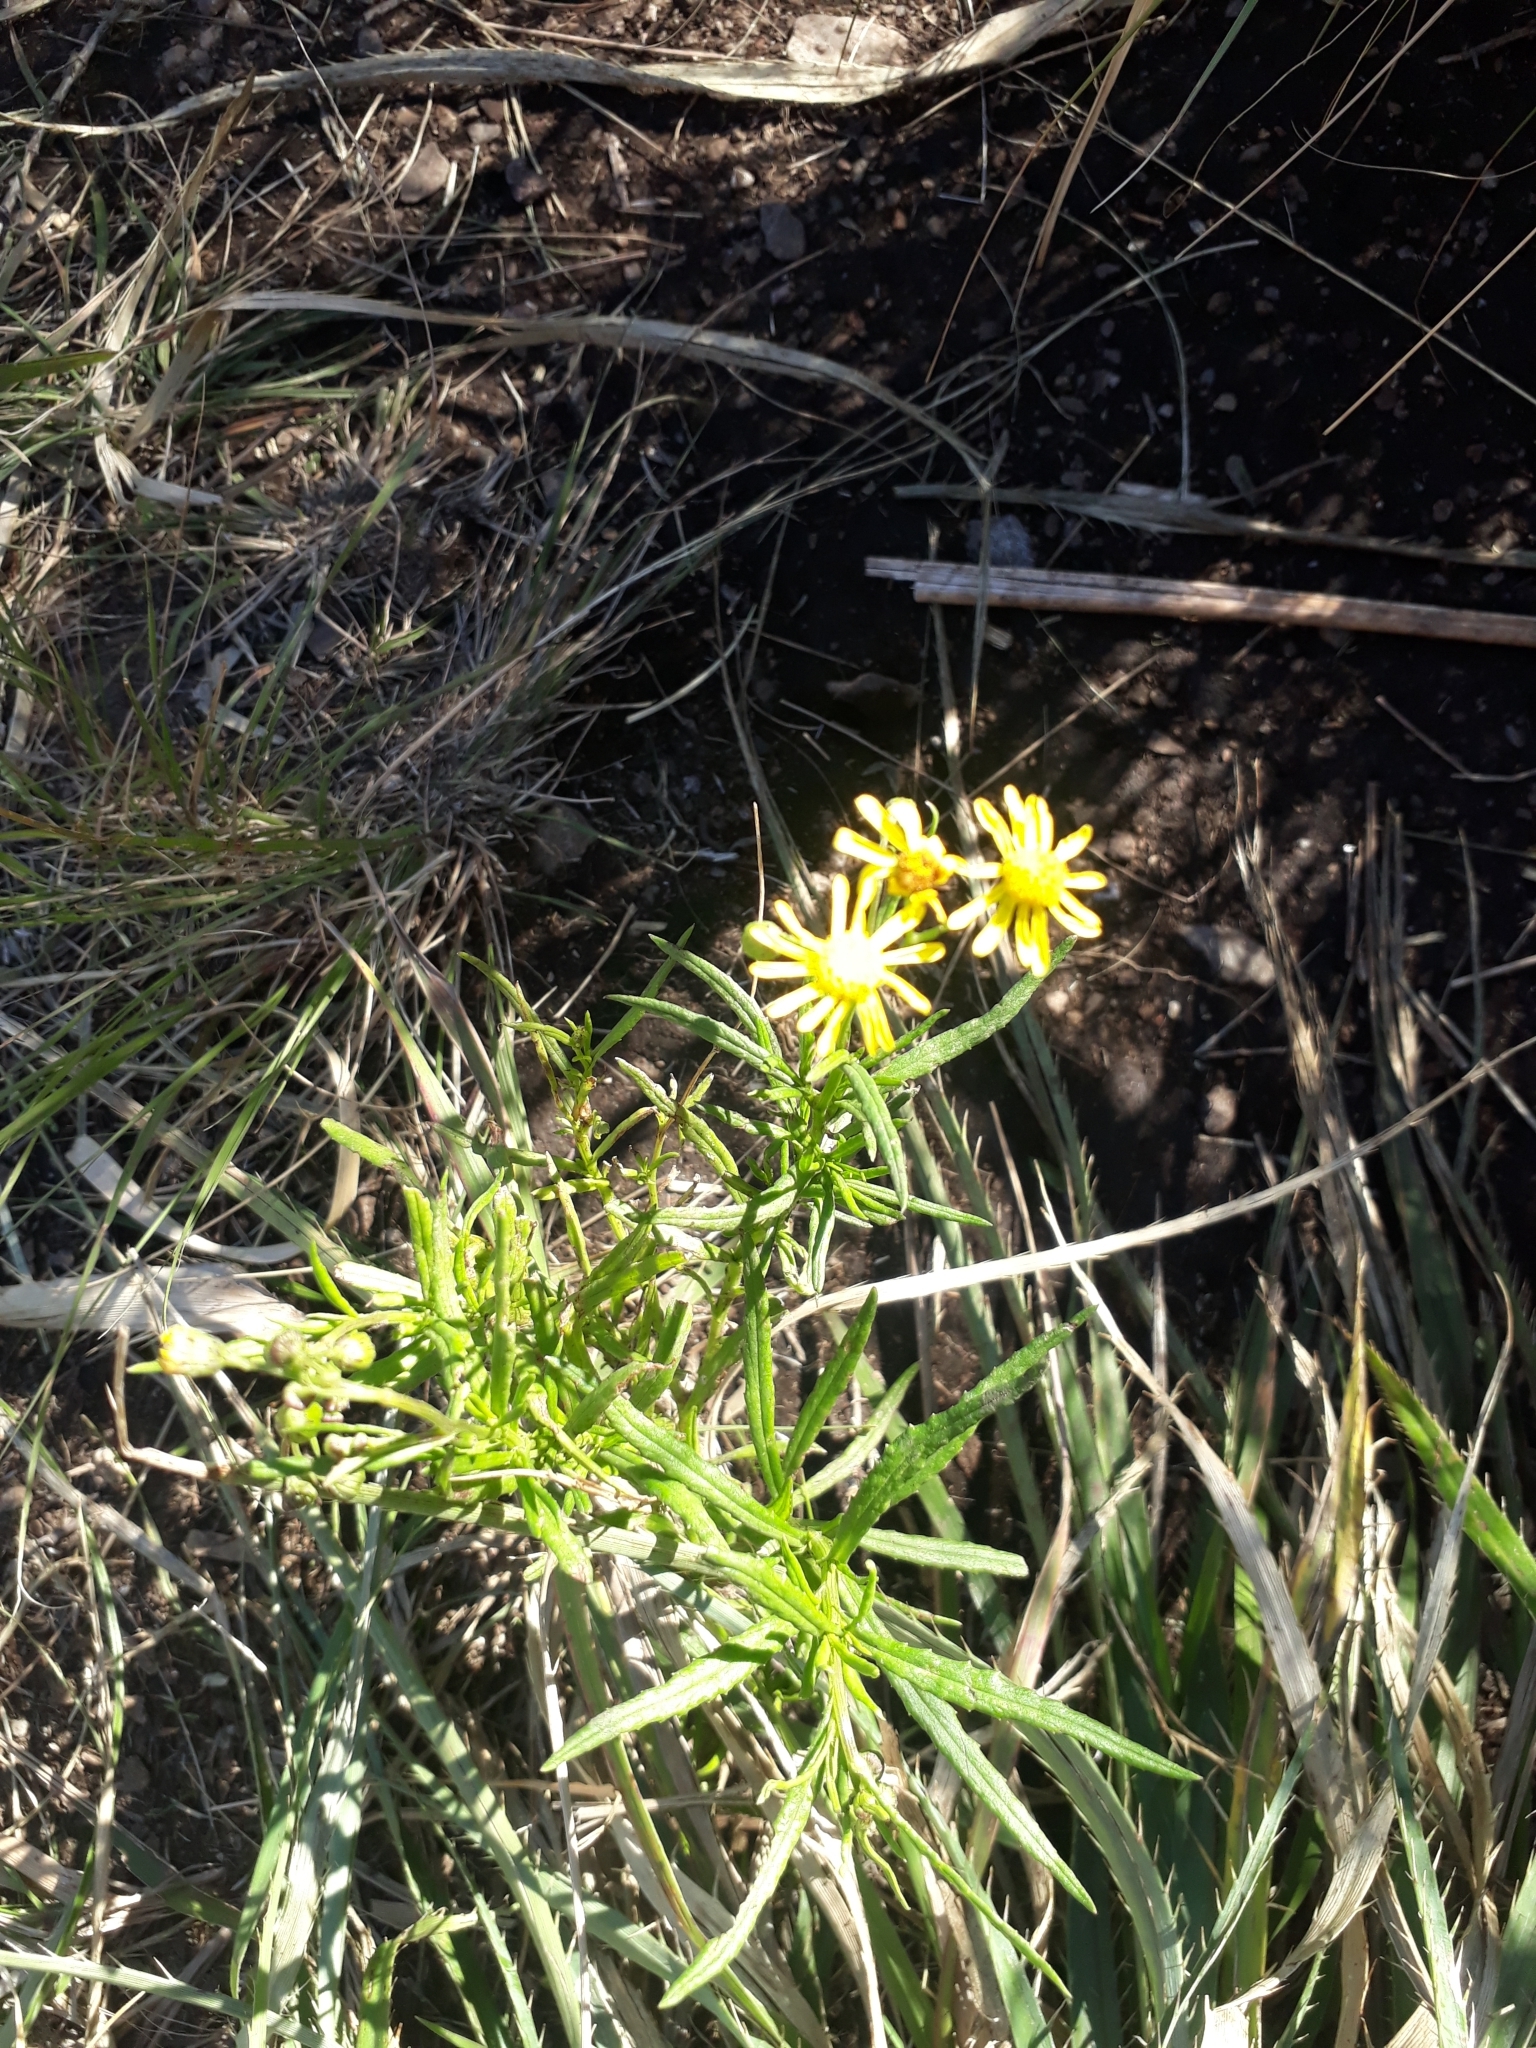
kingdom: Plantae
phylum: Tracheophyta
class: Magnoliopsida
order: Asterales
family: Asteraceae
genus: Senecio
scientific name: Senecio madagascariensis
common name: Madagascar ragwort
